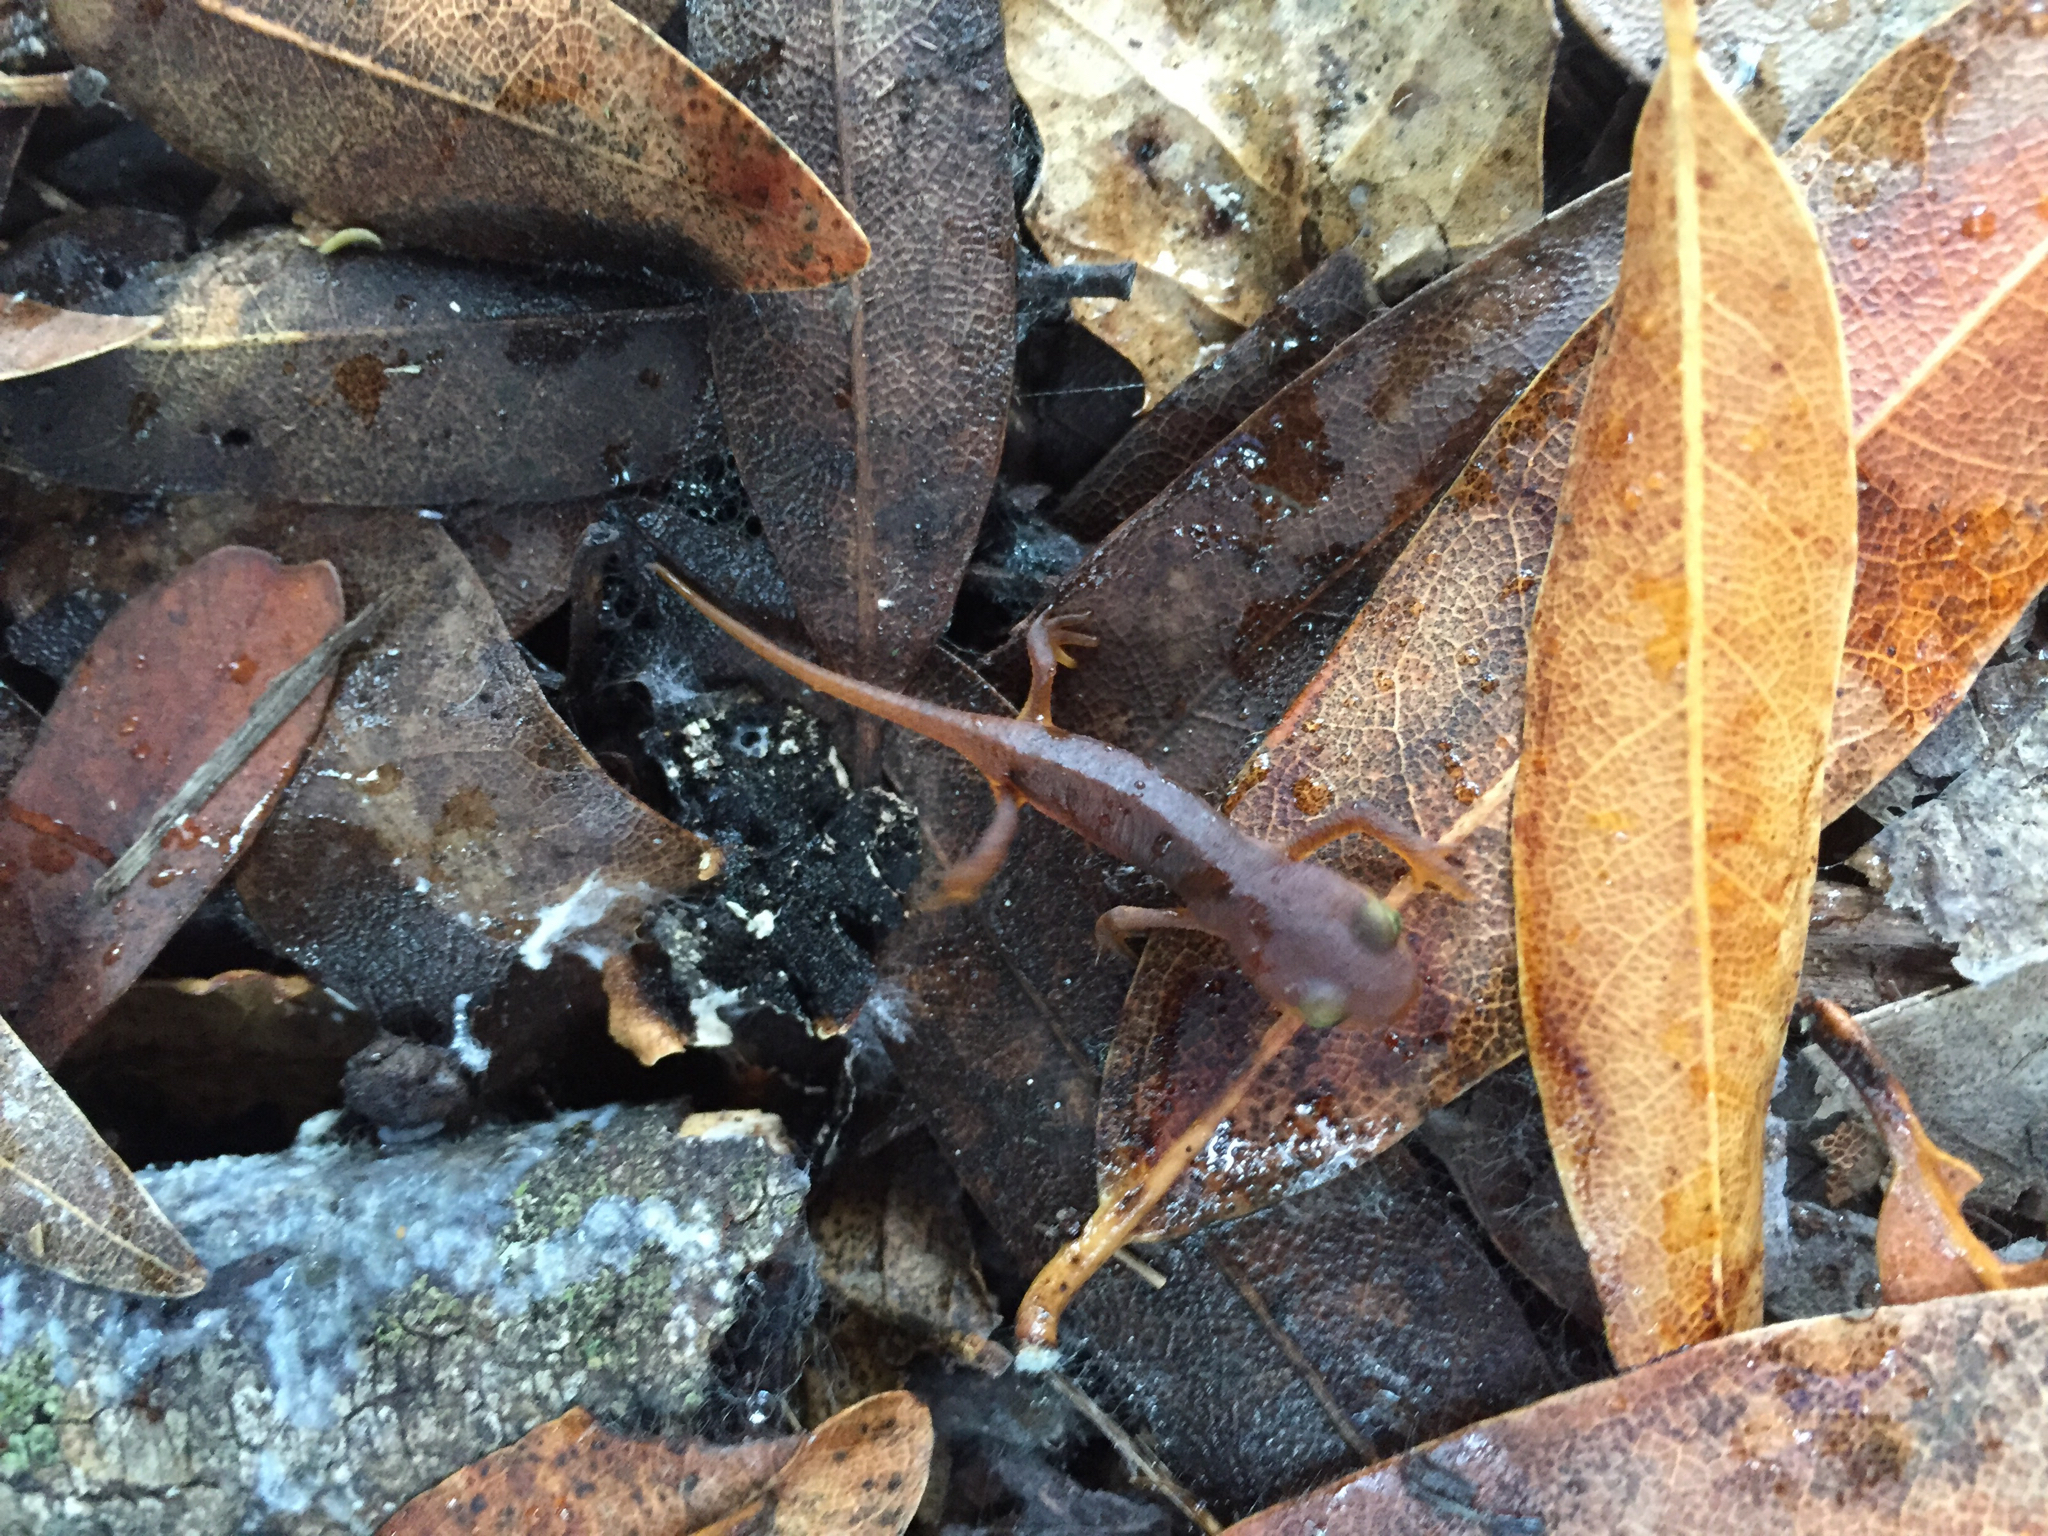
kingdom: Animalia
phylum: Chordata
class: Amphibia
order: Caudata
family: Salamandridae
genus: Taricha
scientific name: Taricha torosa
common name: California newt
